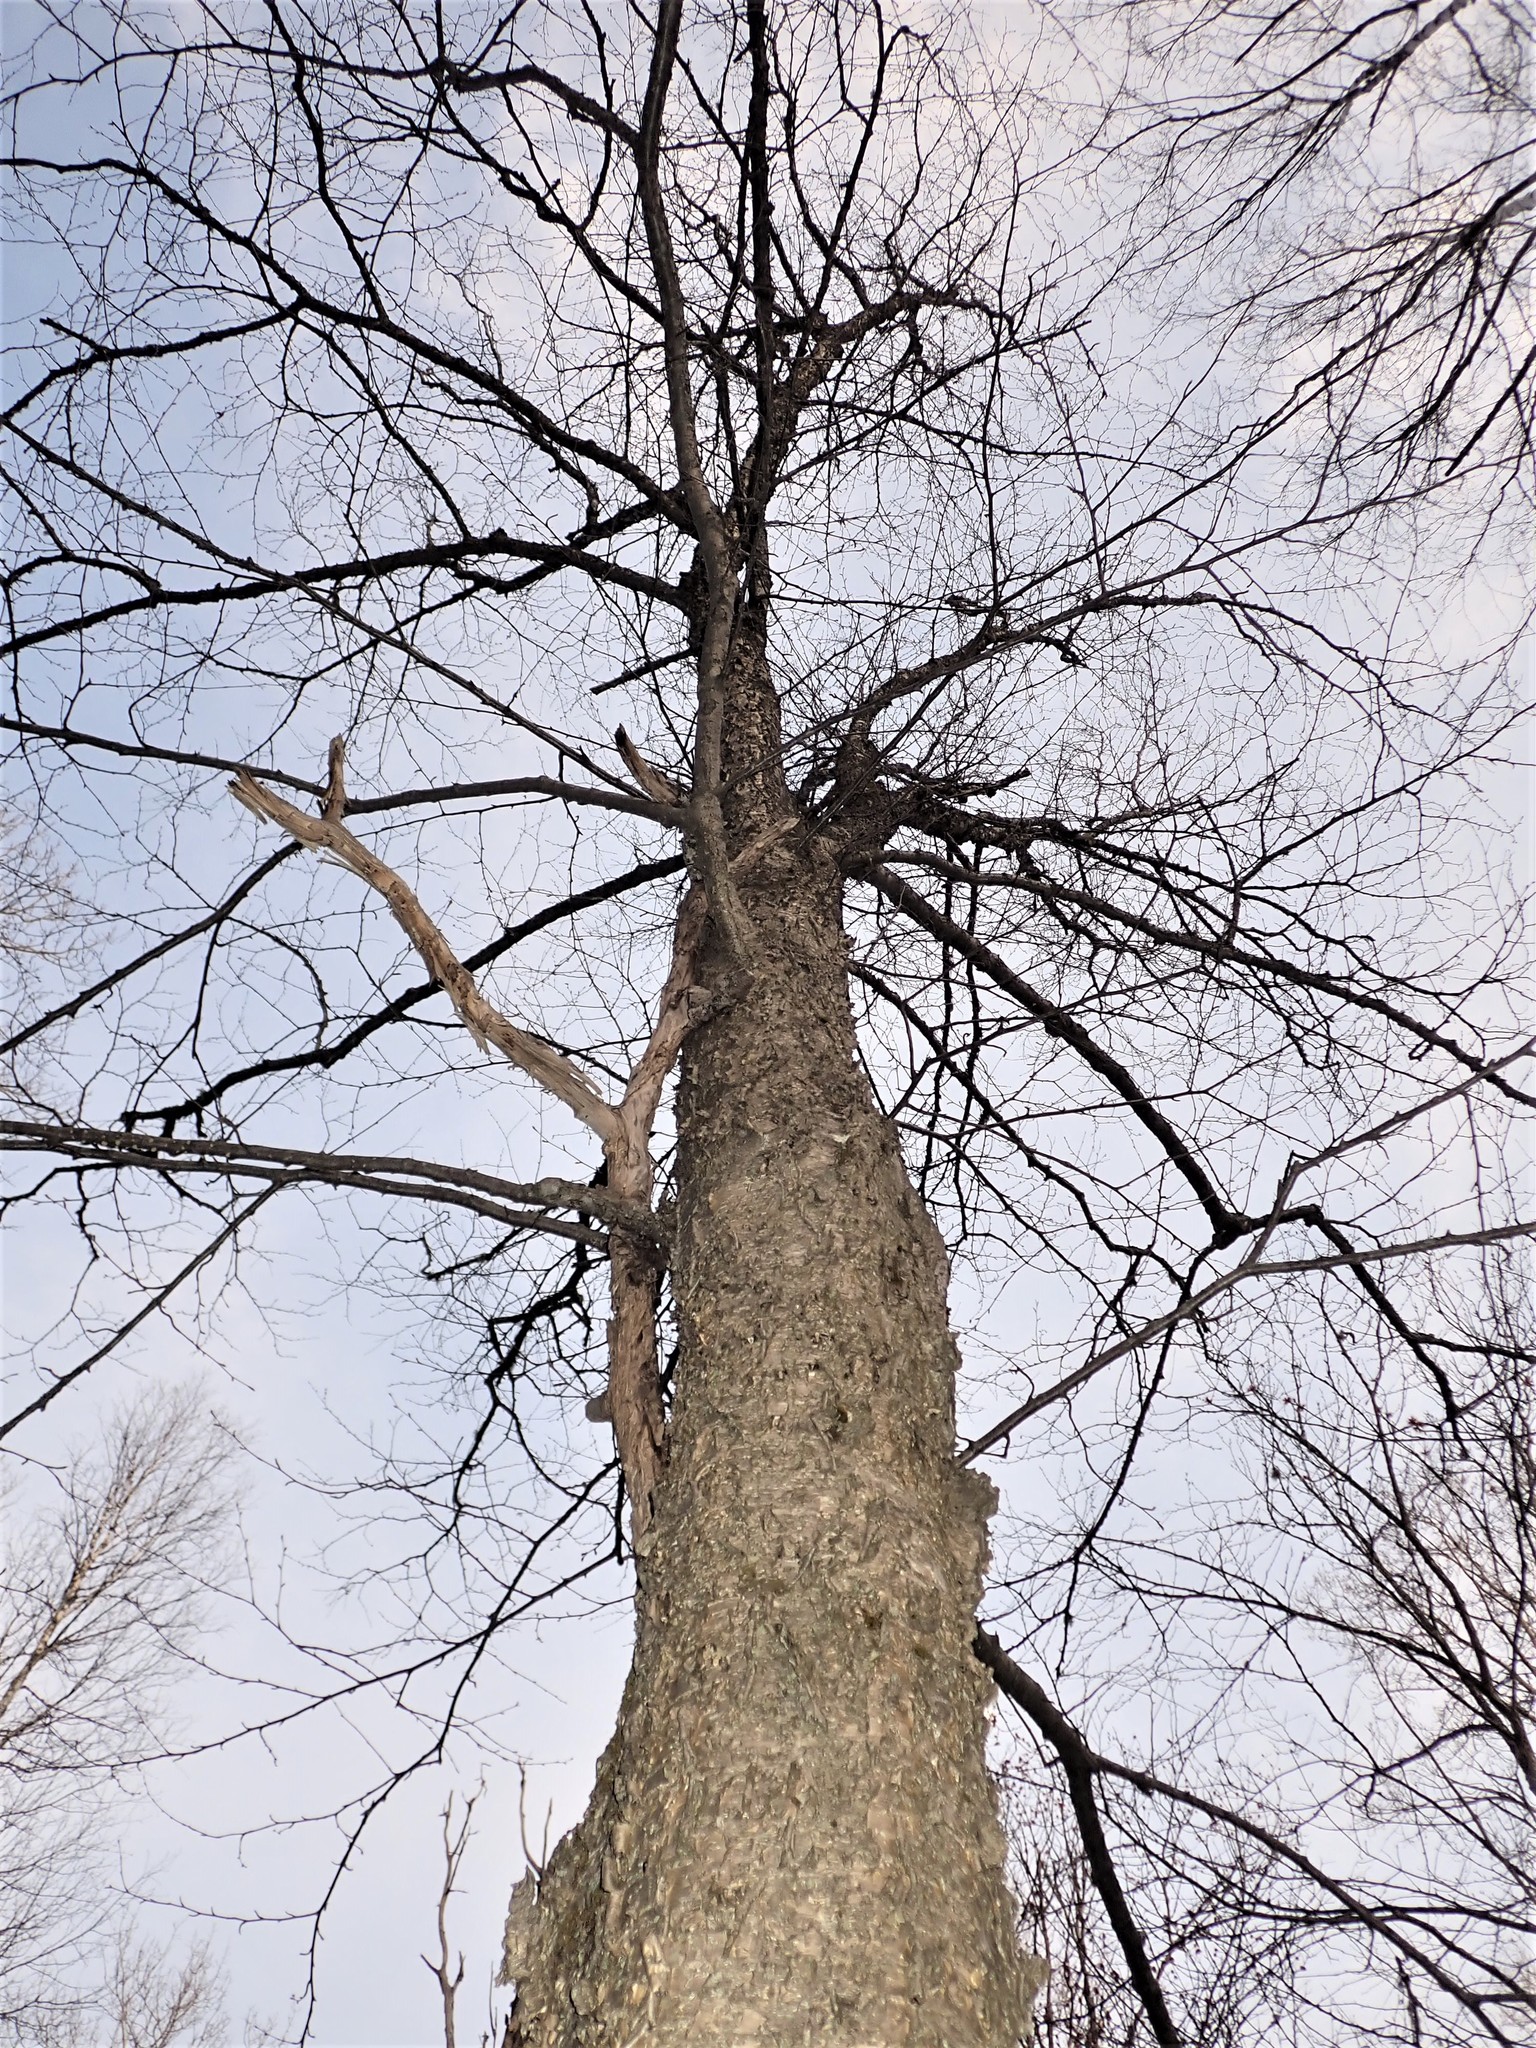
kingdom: Plantae
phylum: Tracheophyta
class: Magnoliopsida
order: Fagales
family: Betulaceae
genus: Betula
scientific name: Betula alleghaniensis
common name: Yellow birch
